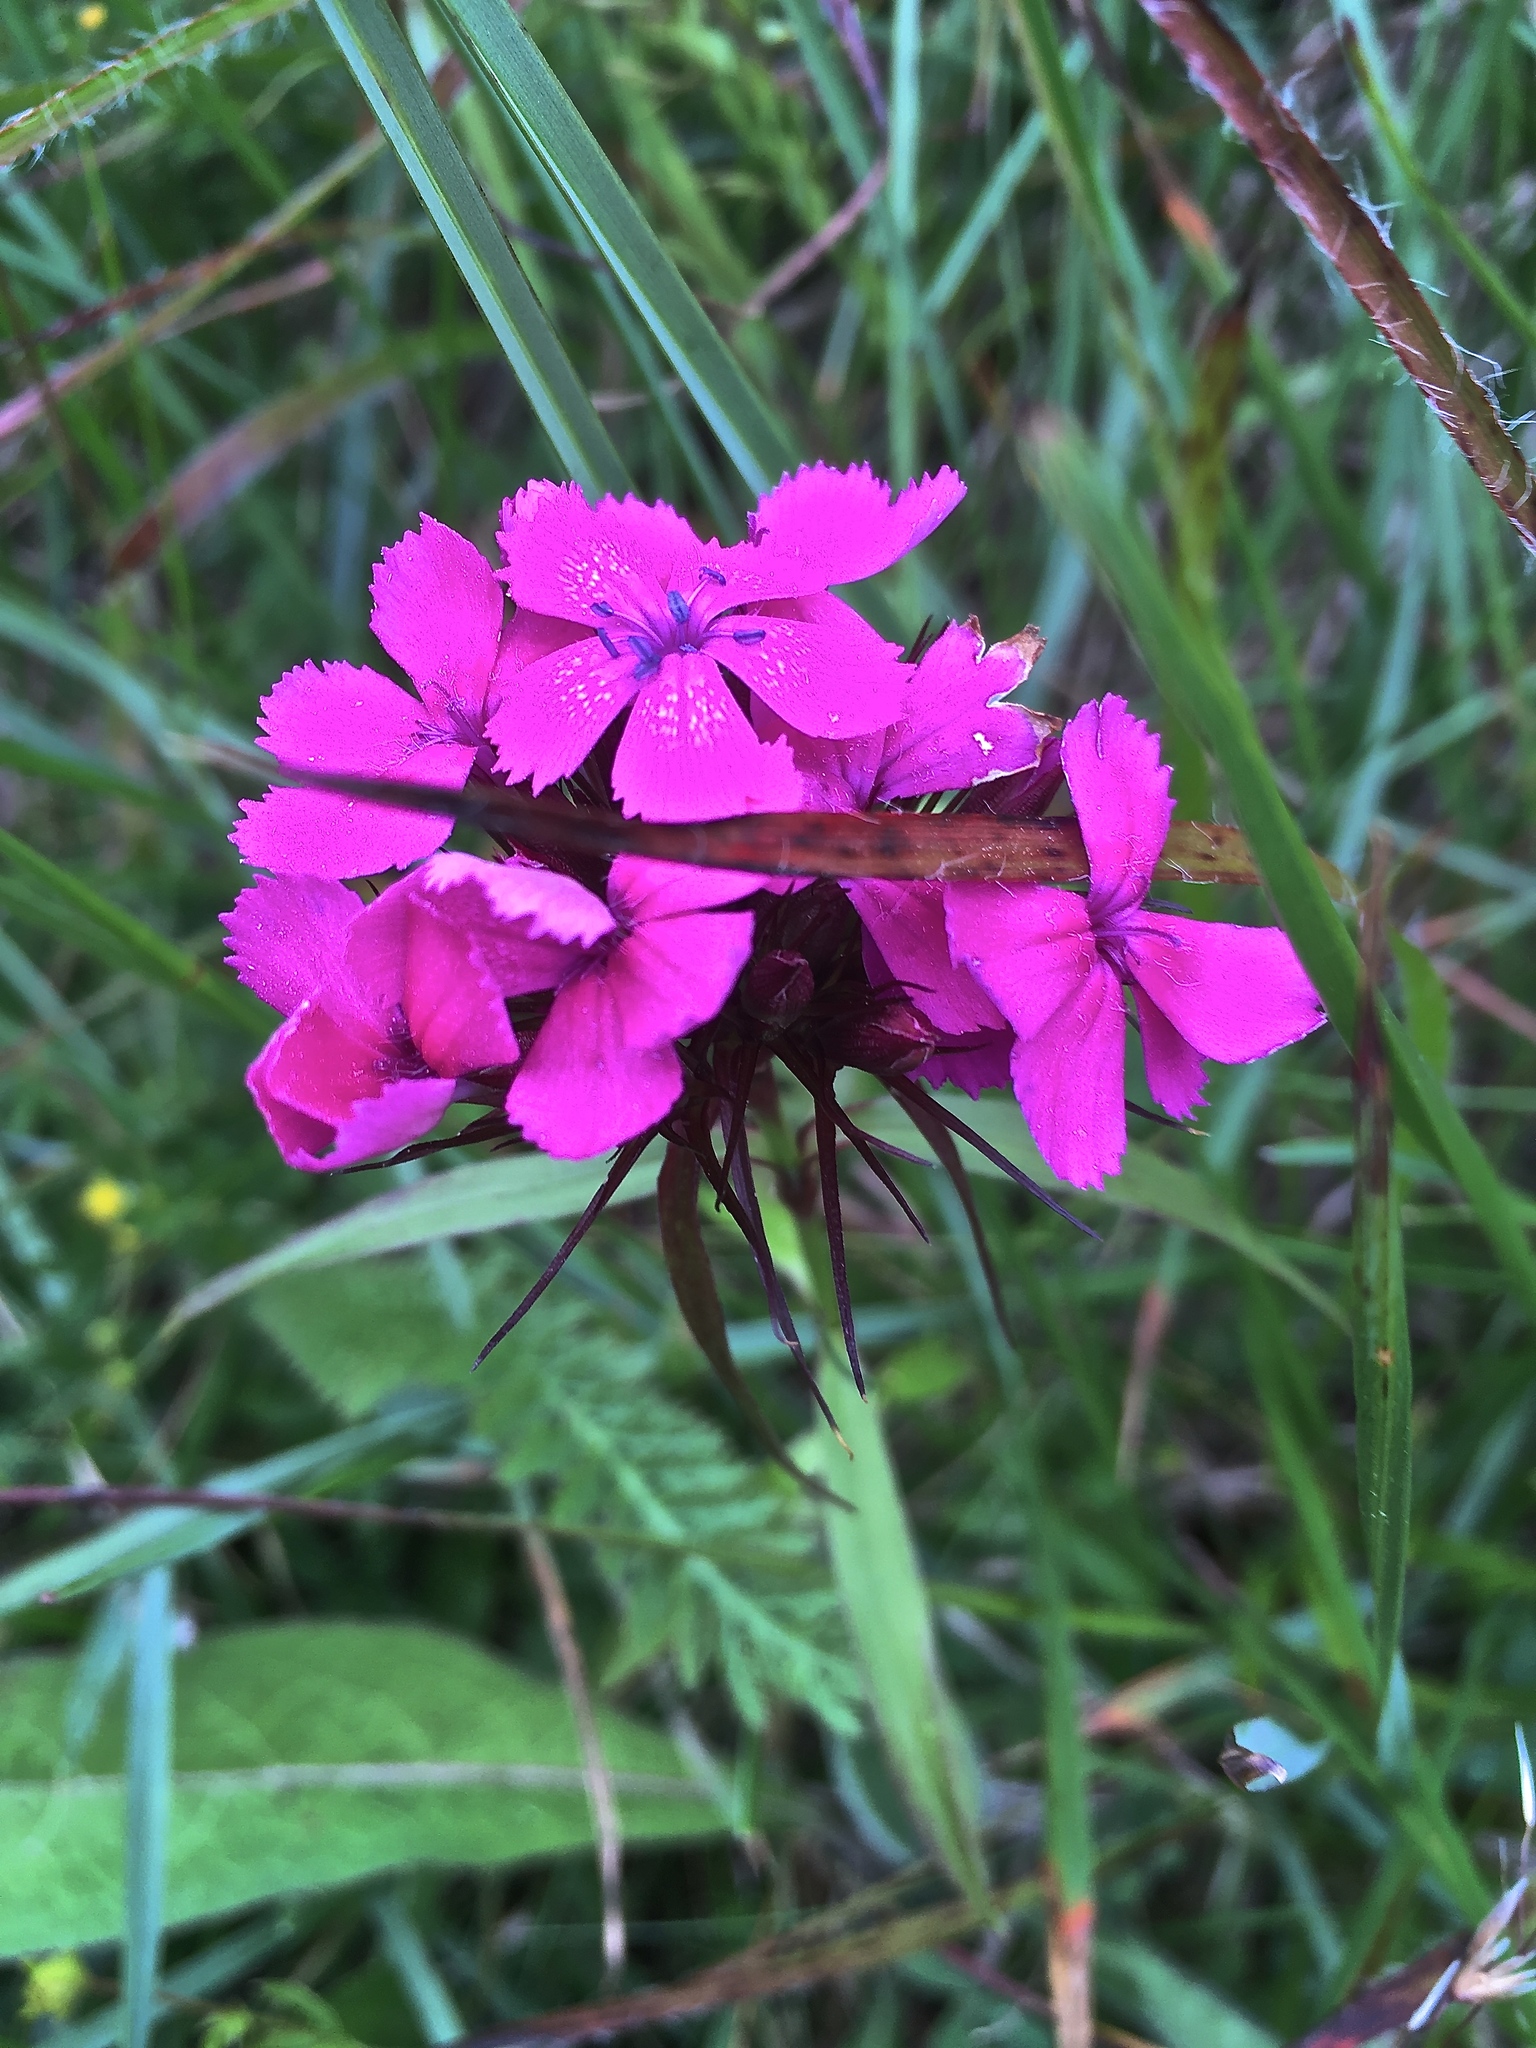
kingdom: Plantae
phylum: Tracheophyta
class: Magnoliopsida
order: Caryophyllales
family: Caryophyllaceae
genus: Dianthus
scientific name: Dianthus barbatus
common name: Sweet-william
